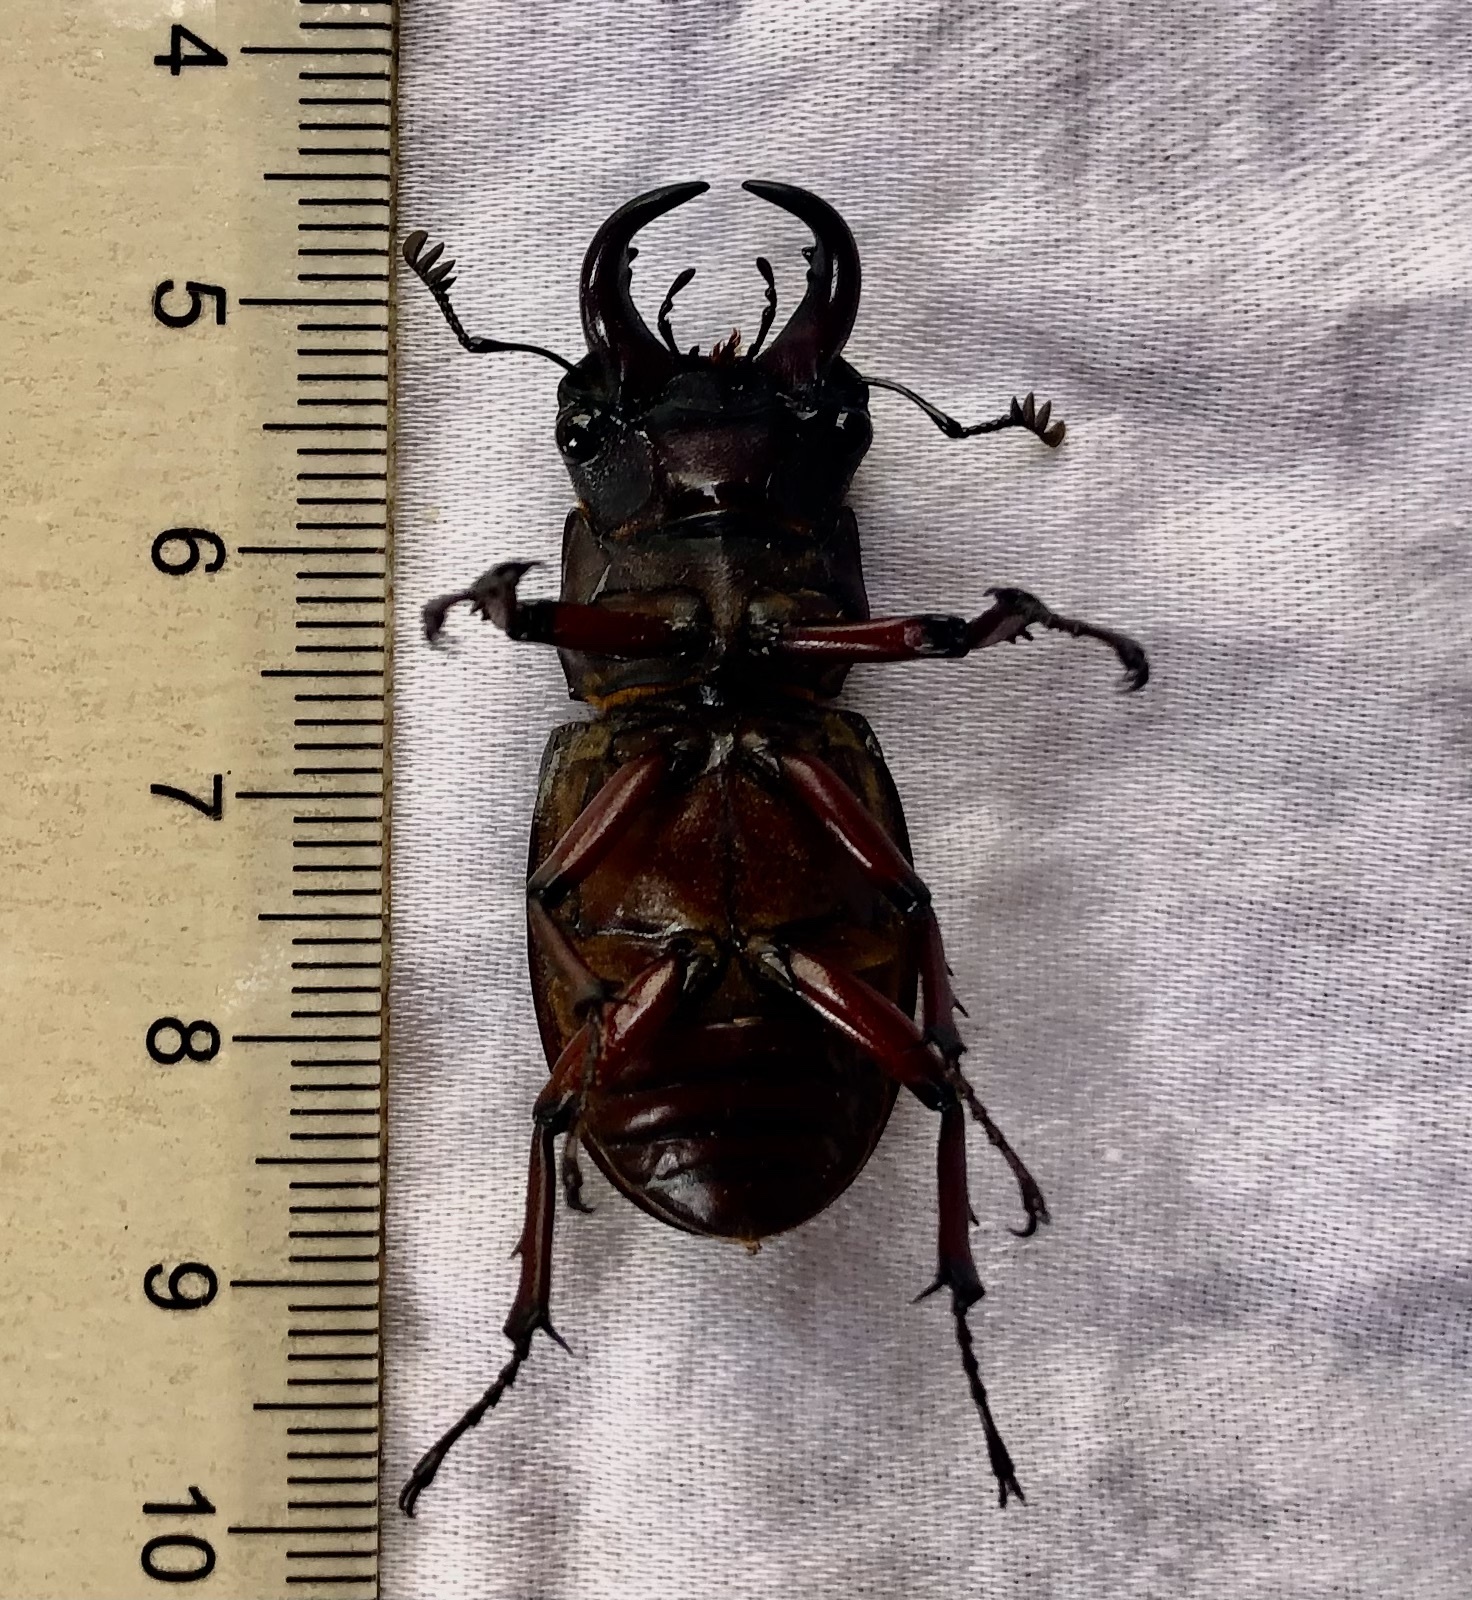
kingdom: Animalia
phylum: Arthropoda
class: Insecta
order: Coleoptera
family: Lucanidae
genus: Lucanus
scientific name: Lucanus capreolus
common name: Stag beetle
